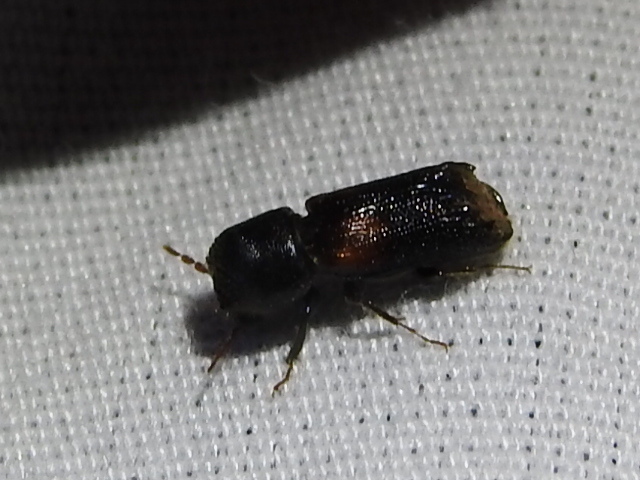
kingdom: Animalia
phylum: Arthropoda
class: Insecta
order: Coleoptera
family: Bostrichidae
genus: Xylobiops
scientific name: Xylobiops basilaris
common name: Red-shouldered bostrichid
